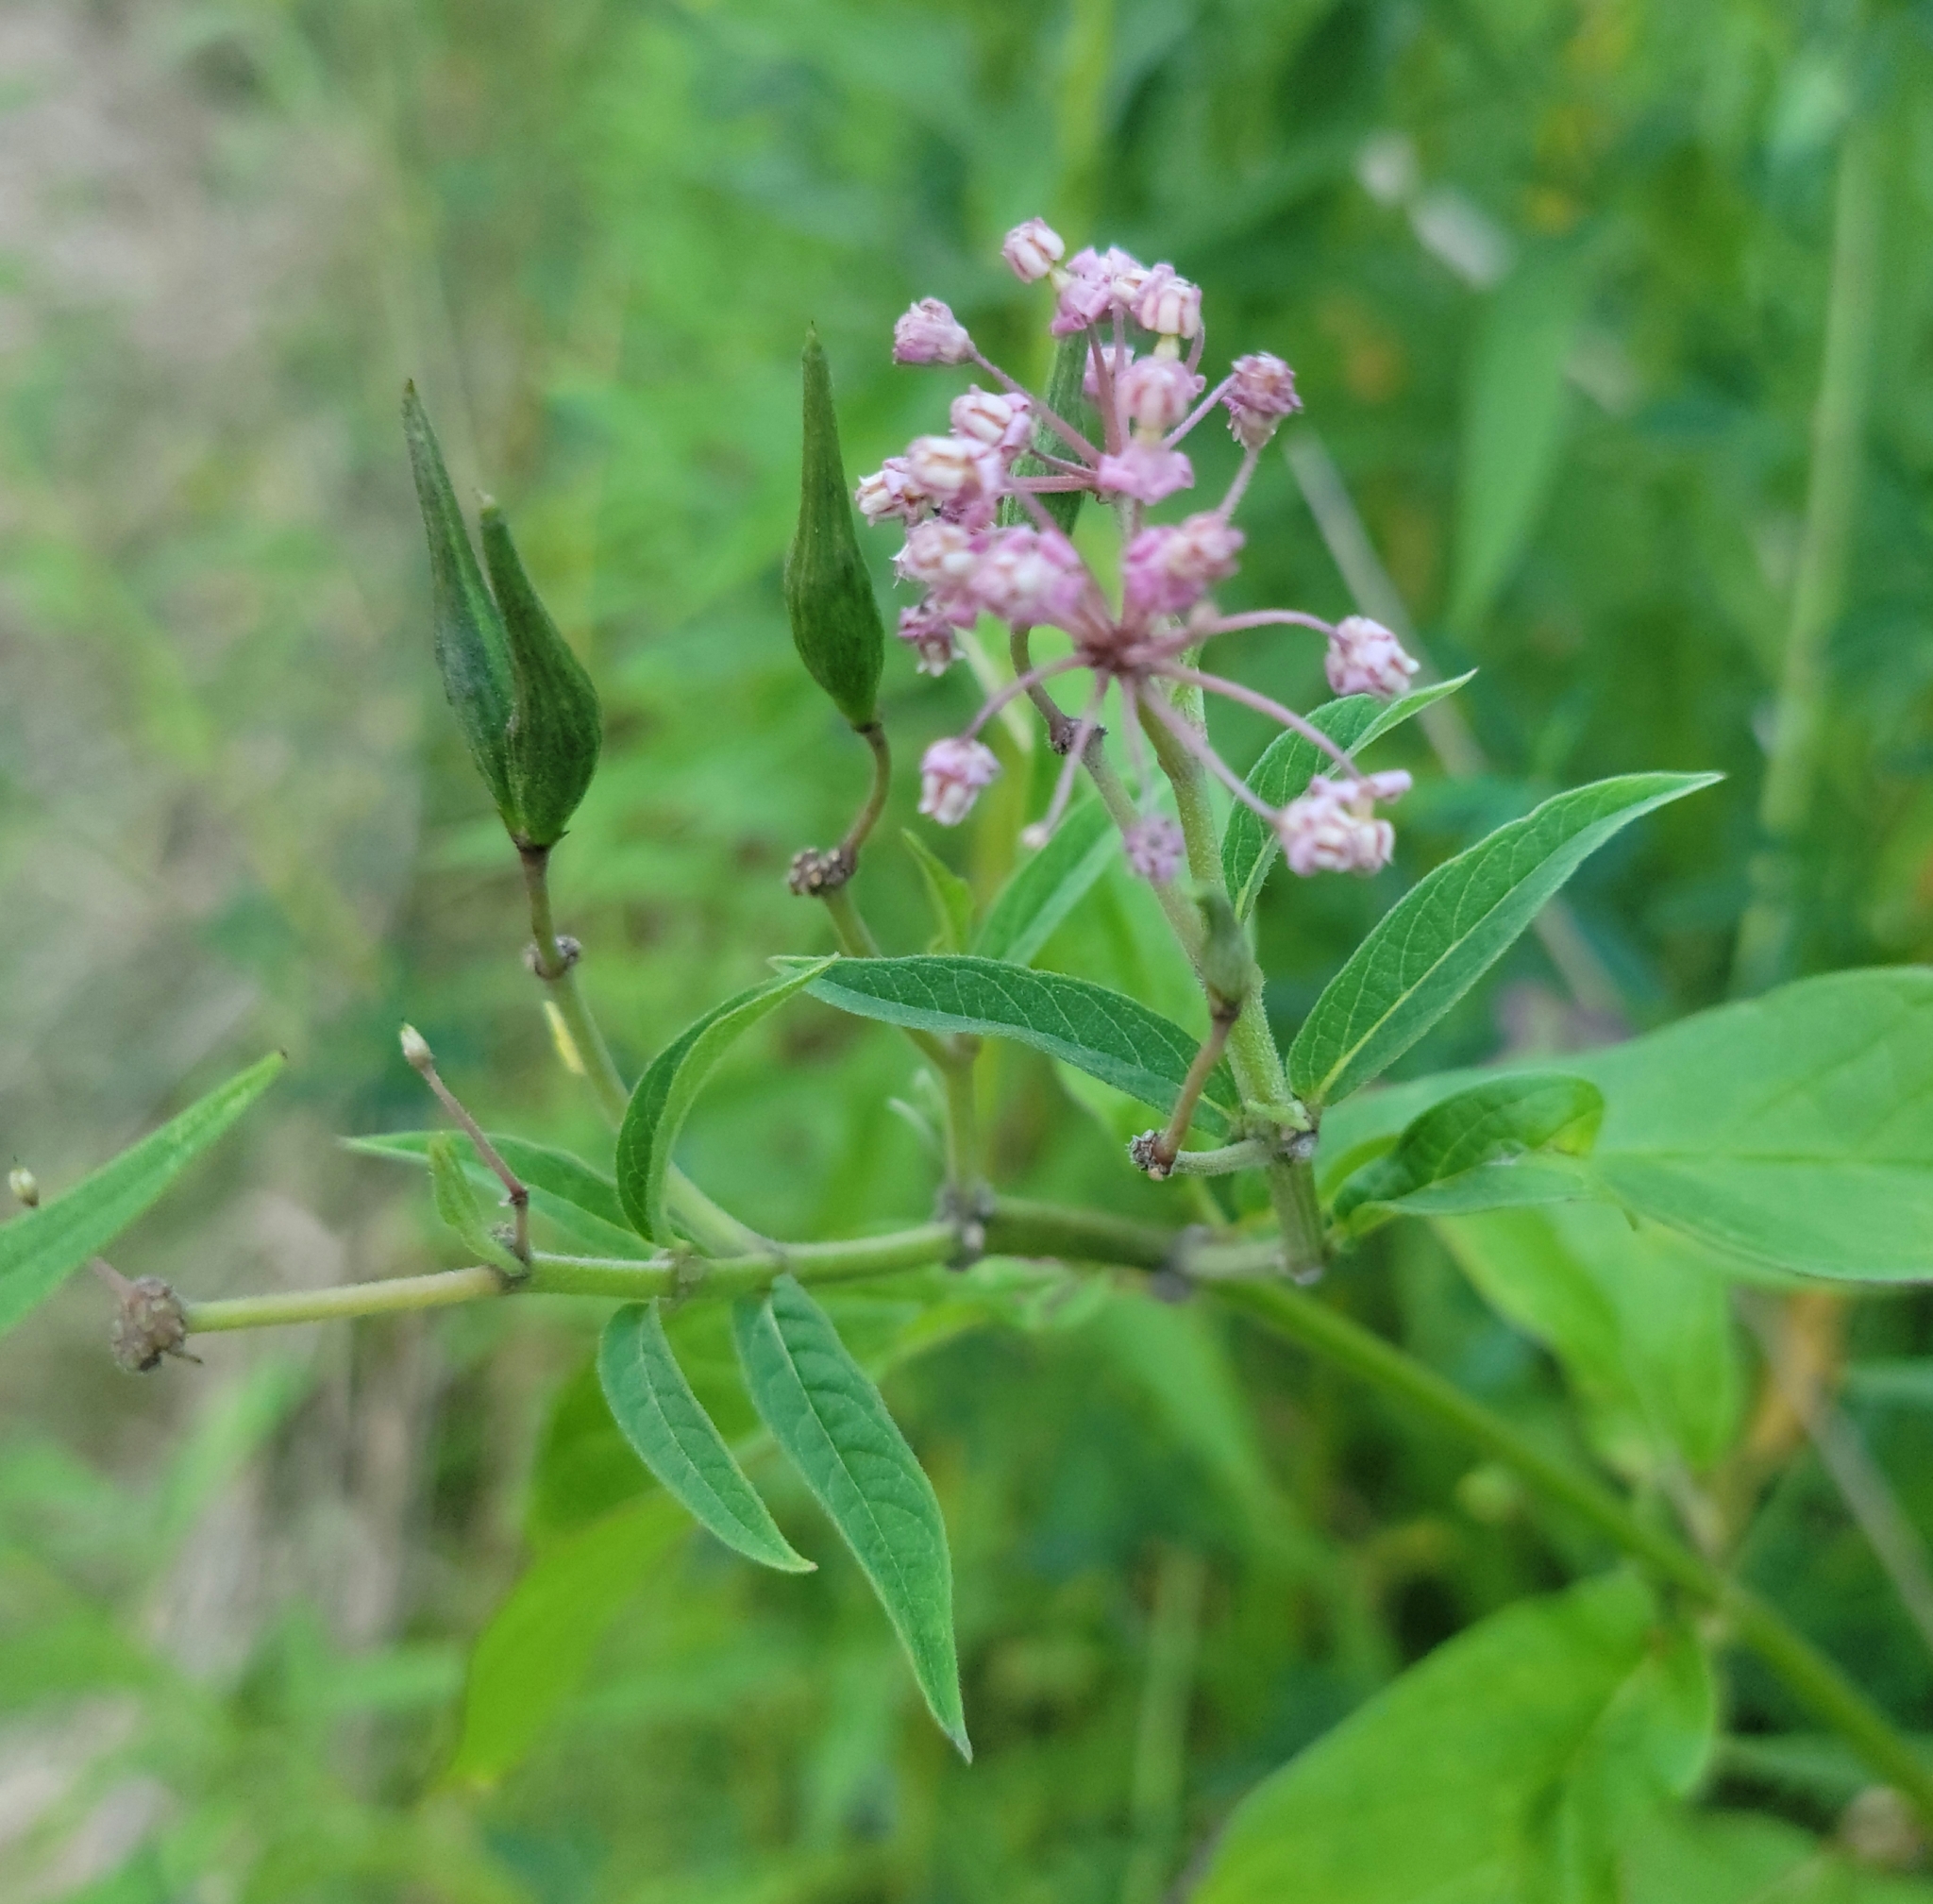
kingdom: Plantae
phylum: Tracheophyta
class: Magnoliopsida
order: Gentianales
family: Apocynaceae
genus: Asclepias
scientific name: Asclepias incarnata
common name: Swamp milkweed
